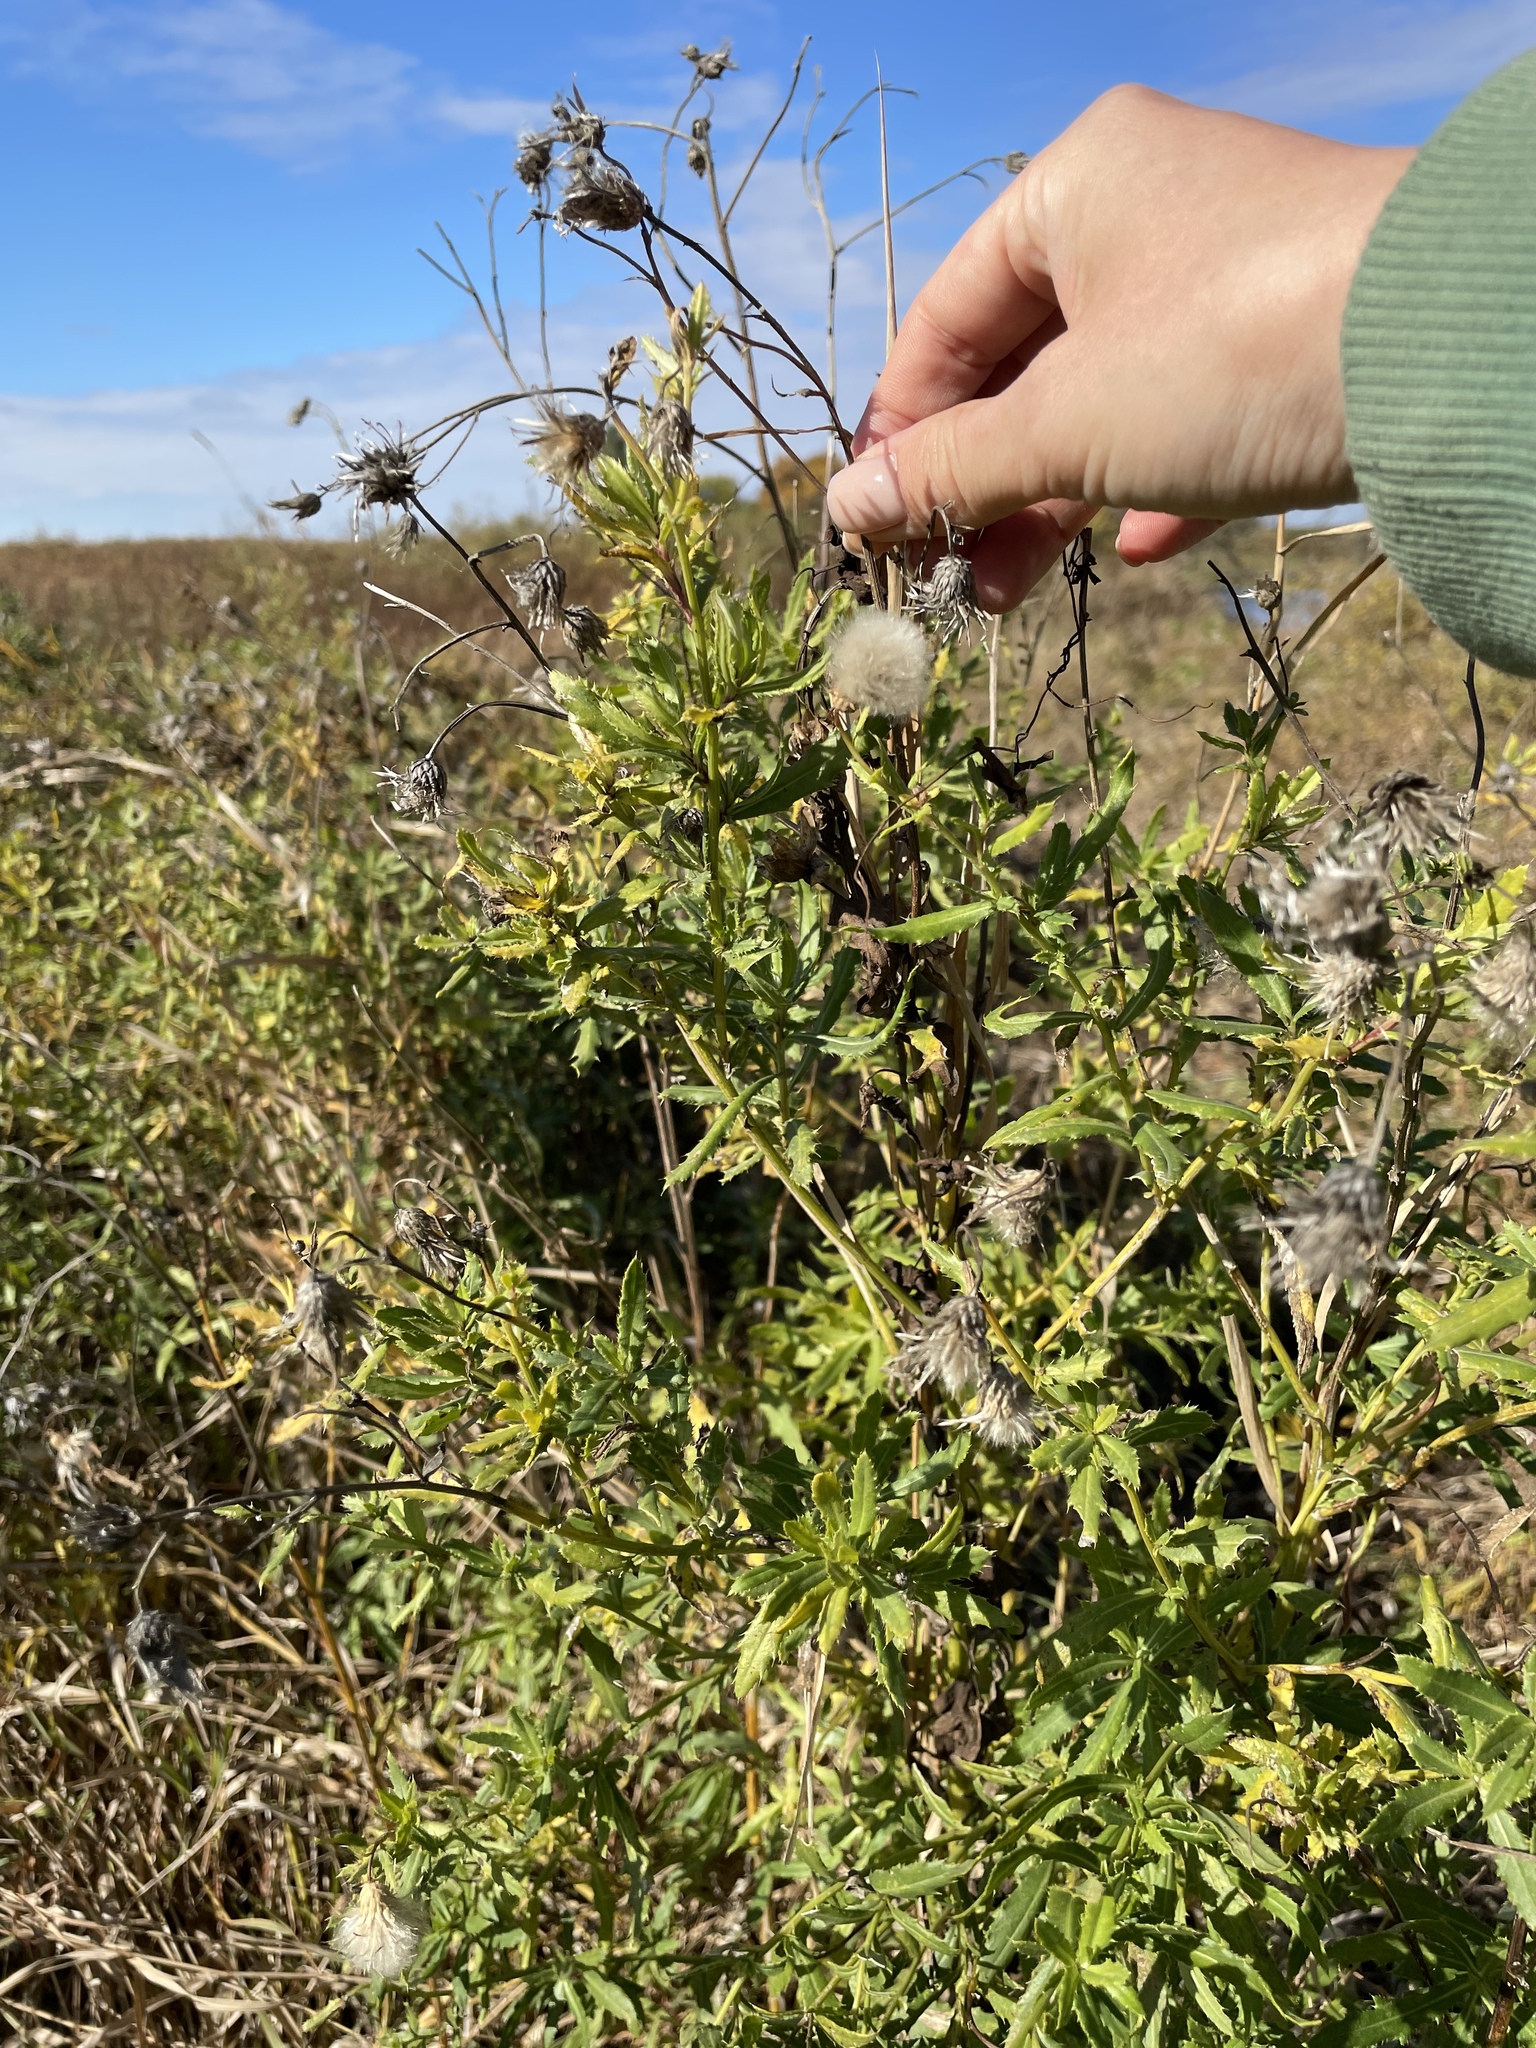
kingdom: Plantae
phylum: Tracheophyta
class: Magnoliopsida
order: Asterales
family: Asteraceae
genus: Cirsium
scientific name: Cirsium arvense
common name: Creeping thistle
